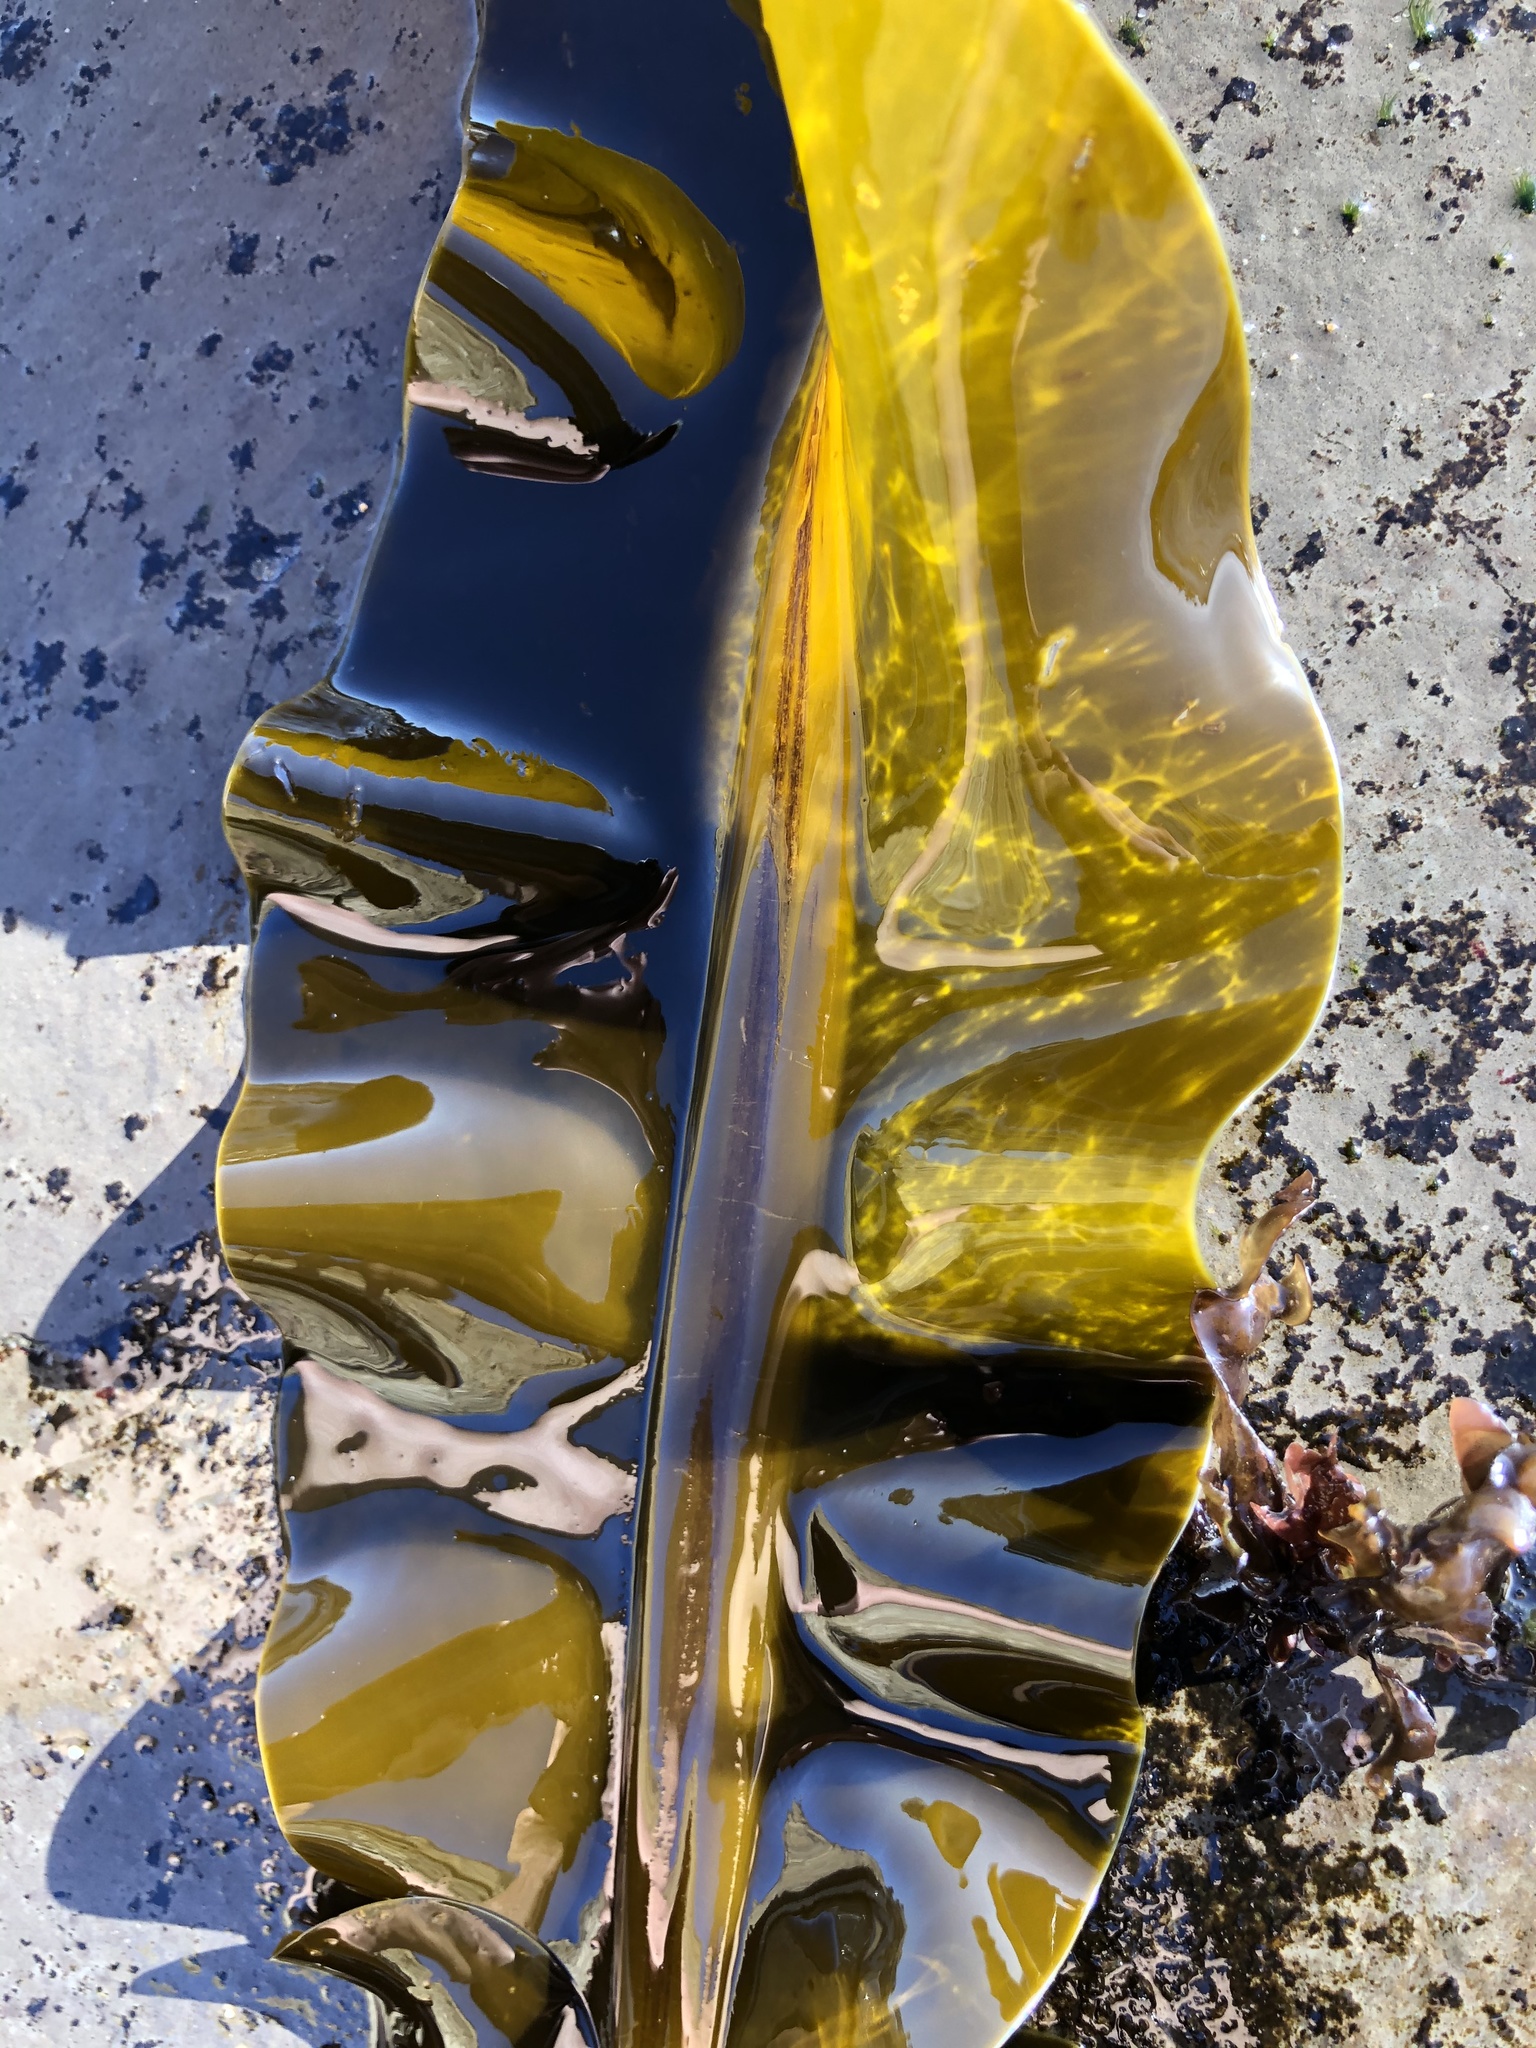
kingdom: Chromista
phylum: Ochrophyta
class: Phaeophyceae
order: Laminariales
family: Alariaceae
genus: Alaria
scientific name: Alaria marginata
